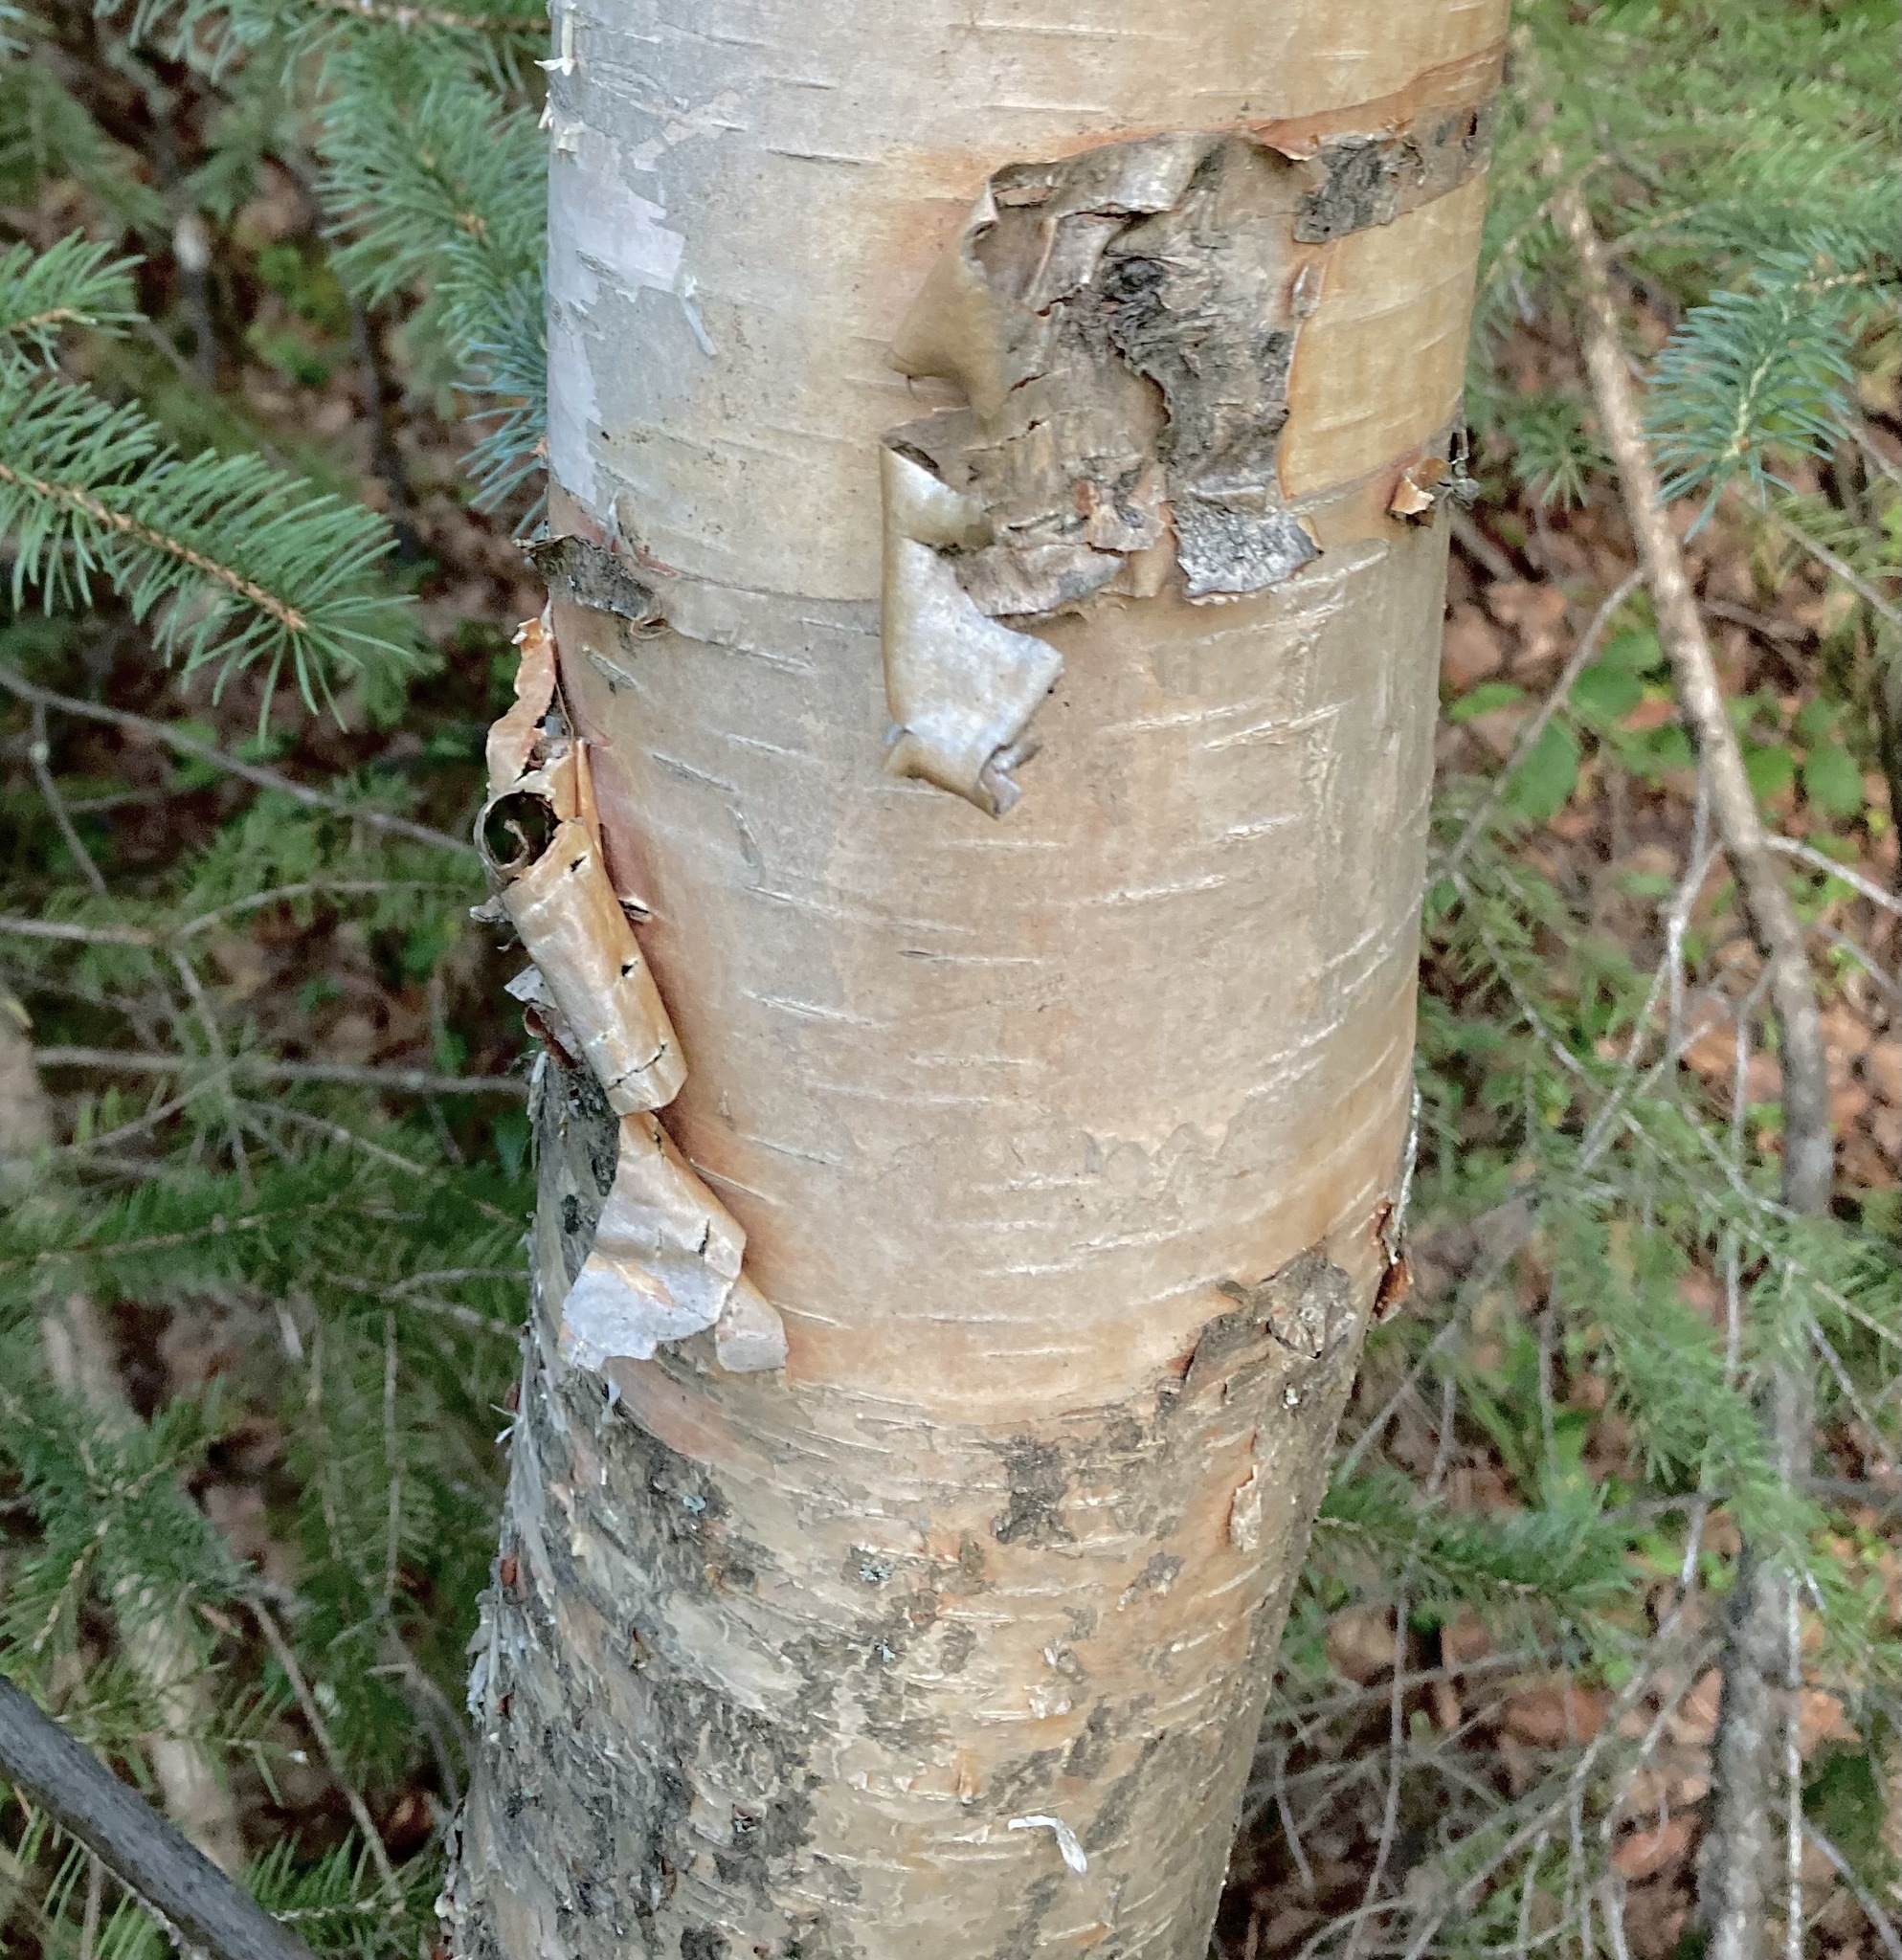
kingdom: Plantae
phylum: Tracheophyta
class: Magnoliopsida
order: Fagales
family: Betulaceae
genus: Betula
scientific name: Betula papyrifera
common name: Paper birch
